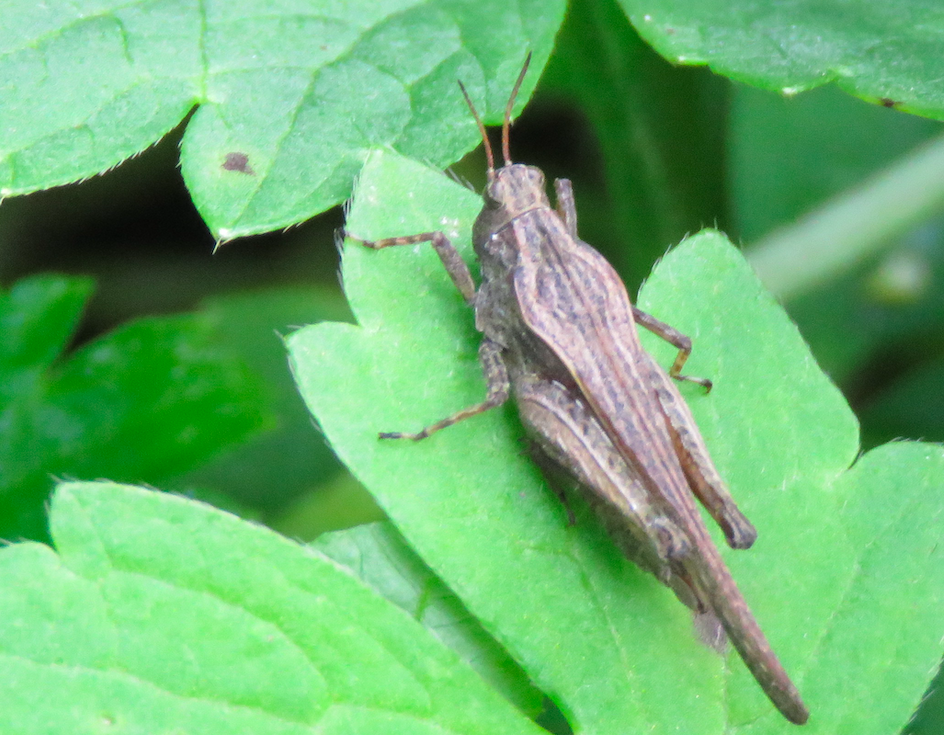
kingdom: Animalia
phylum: Arthropoda
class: Insecta
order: Orthoptera
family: Tetrigidae
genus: Tetrix
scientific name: Tetrix subulata
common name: Slender ground-hopper
